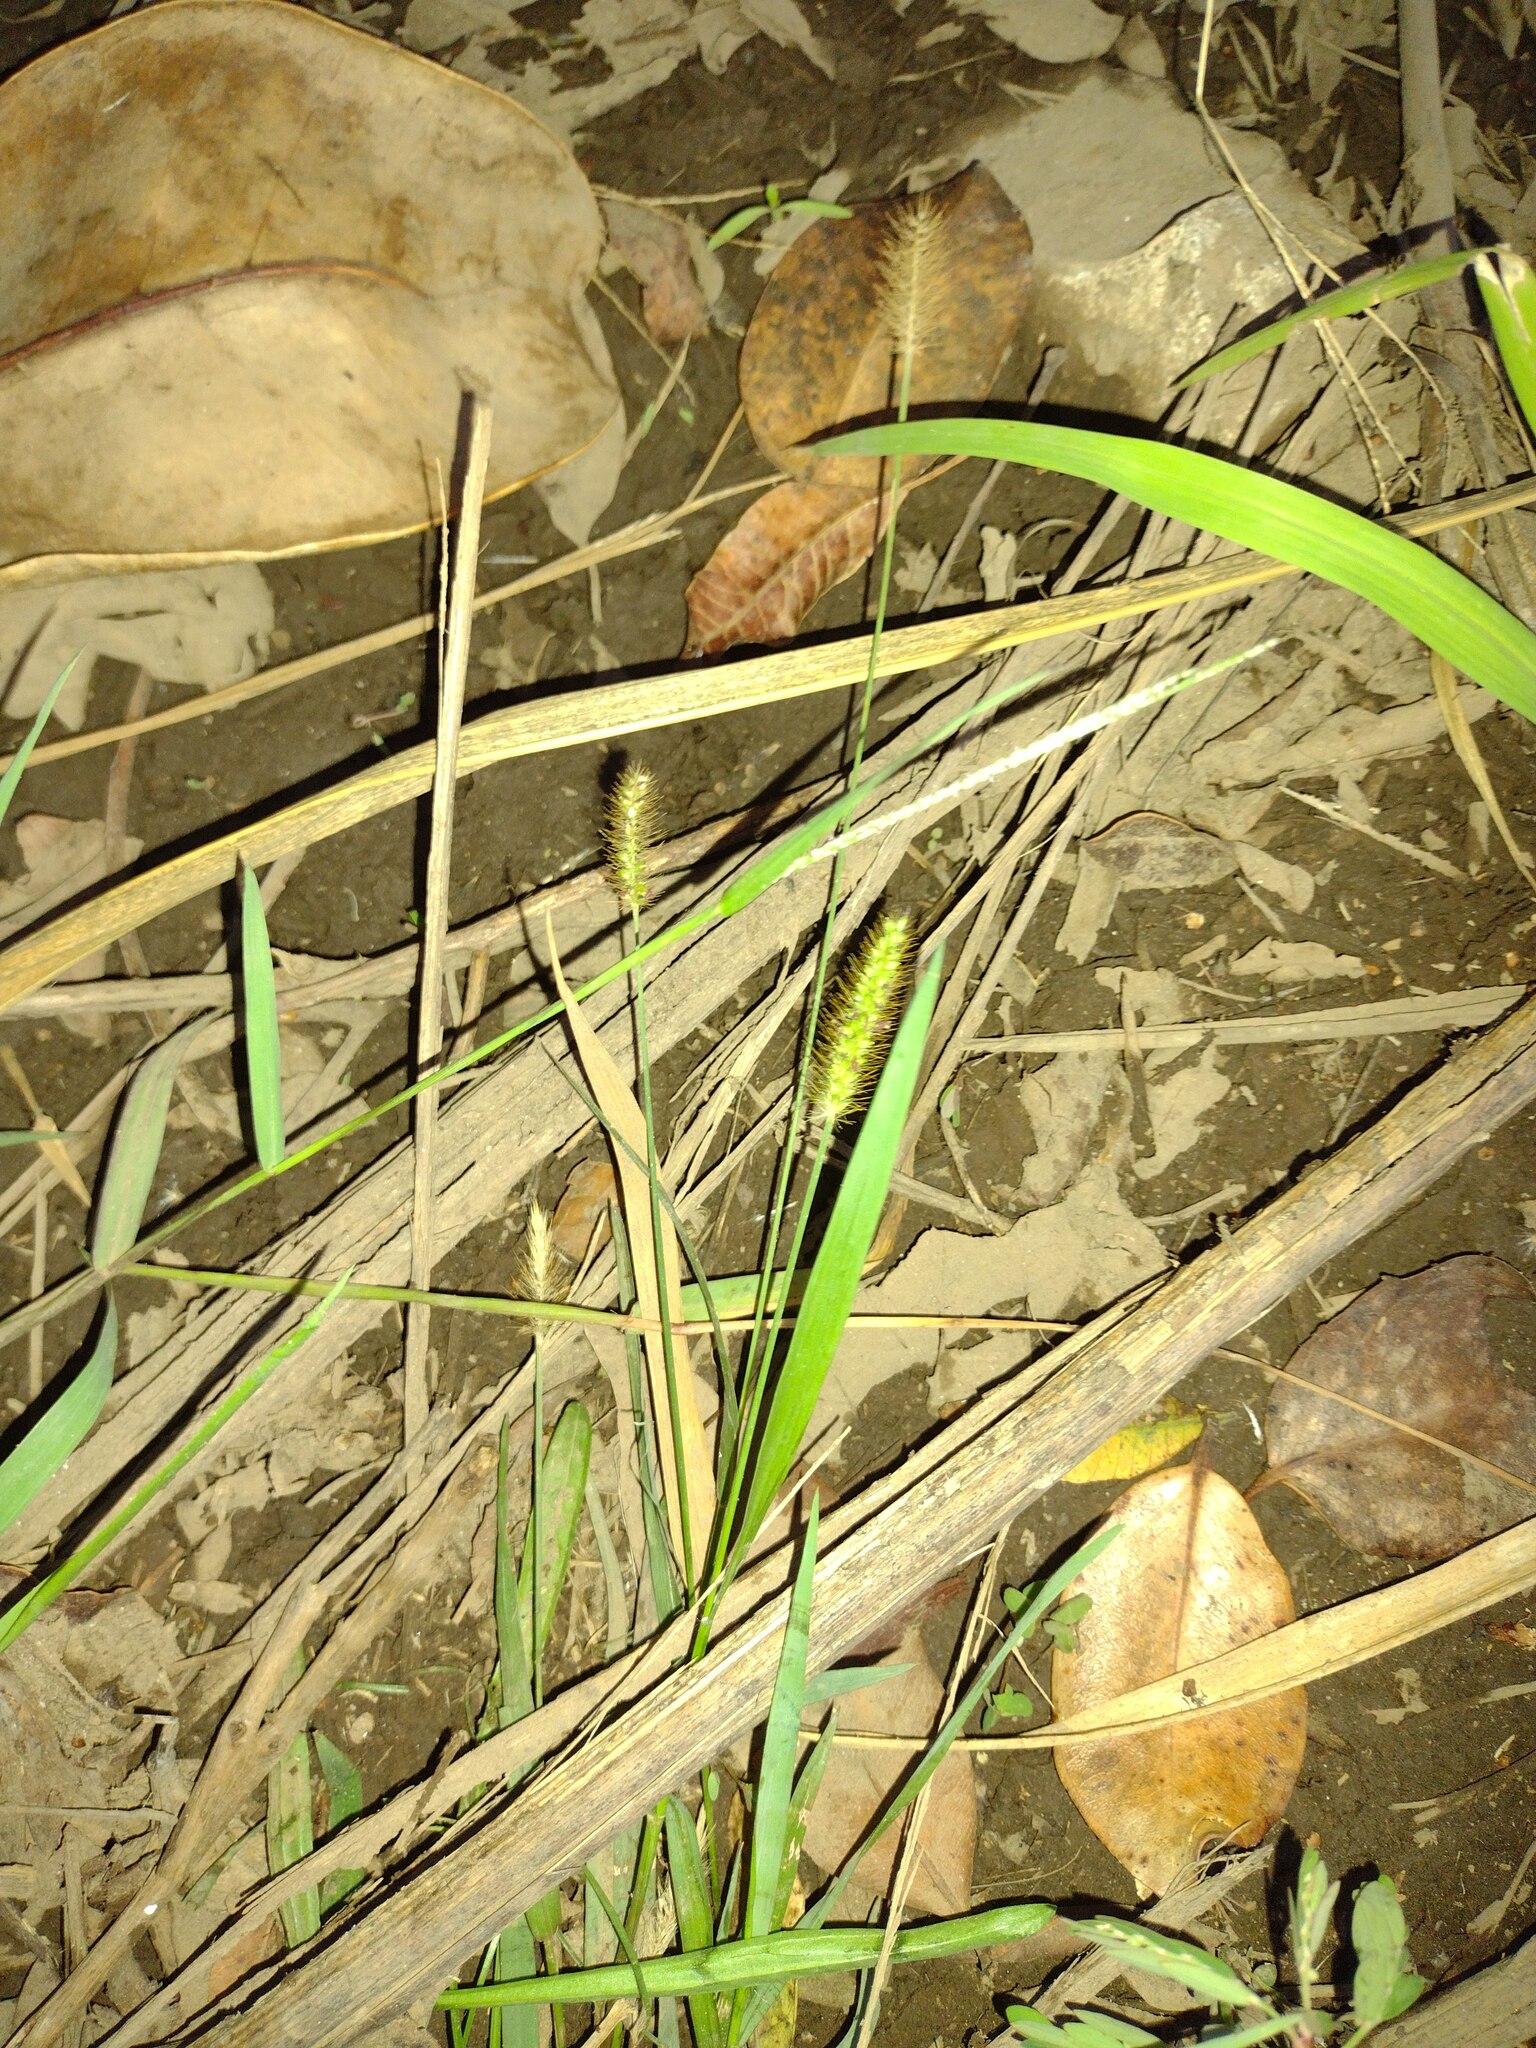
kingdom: Plantae
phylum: Tracheophyta
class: Liliopsida
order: Poales
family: Poaceae
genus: Setaria
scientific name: Setaria parviflora
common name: Knotroot bristle-grass
